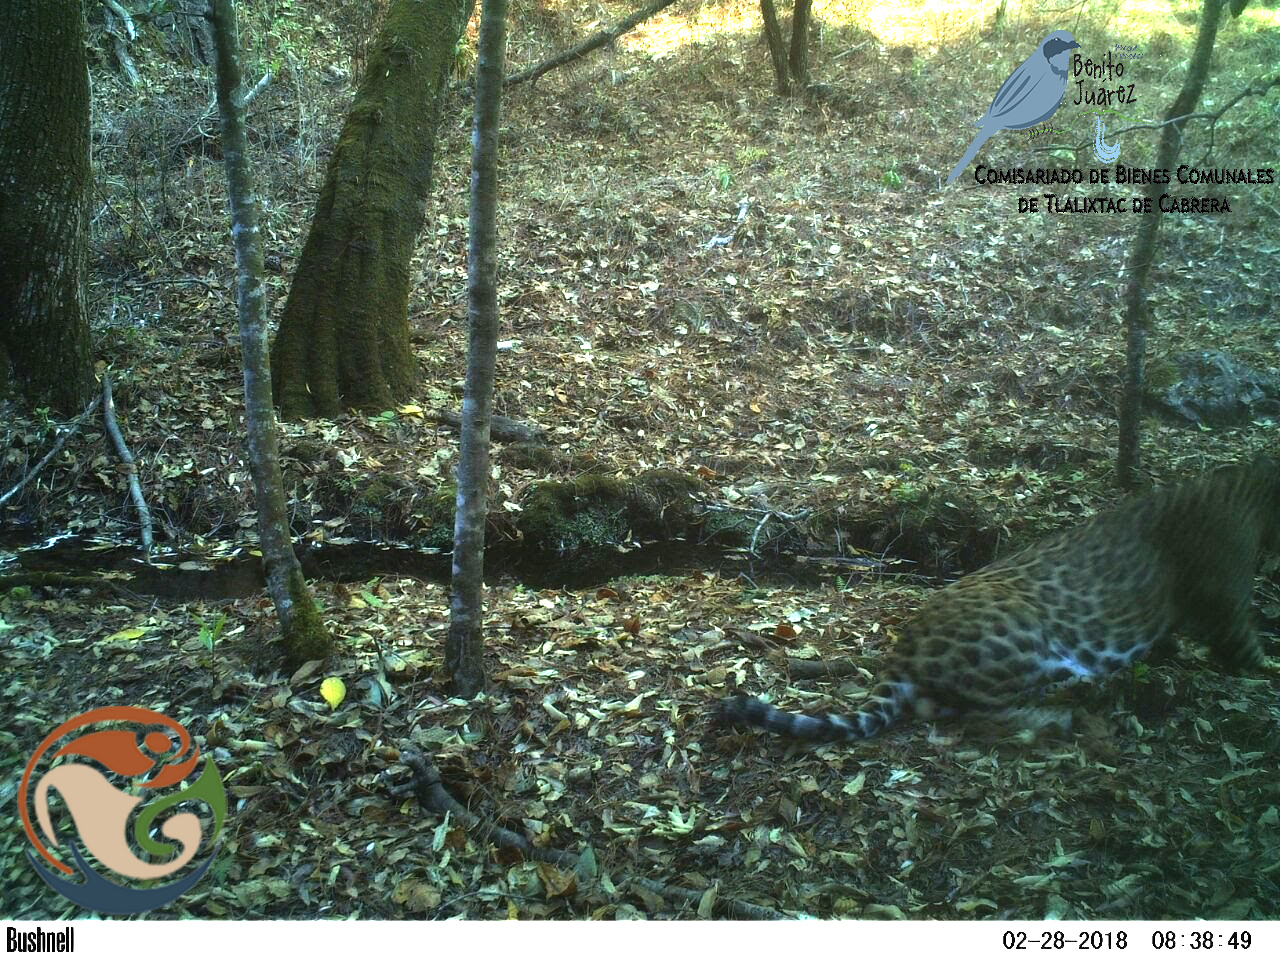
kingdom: Animalia
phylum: Chordata
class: Mammalia
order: Carnivora
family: Felidae
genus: Panthera
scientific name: Panthera onca
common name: Jaguar
